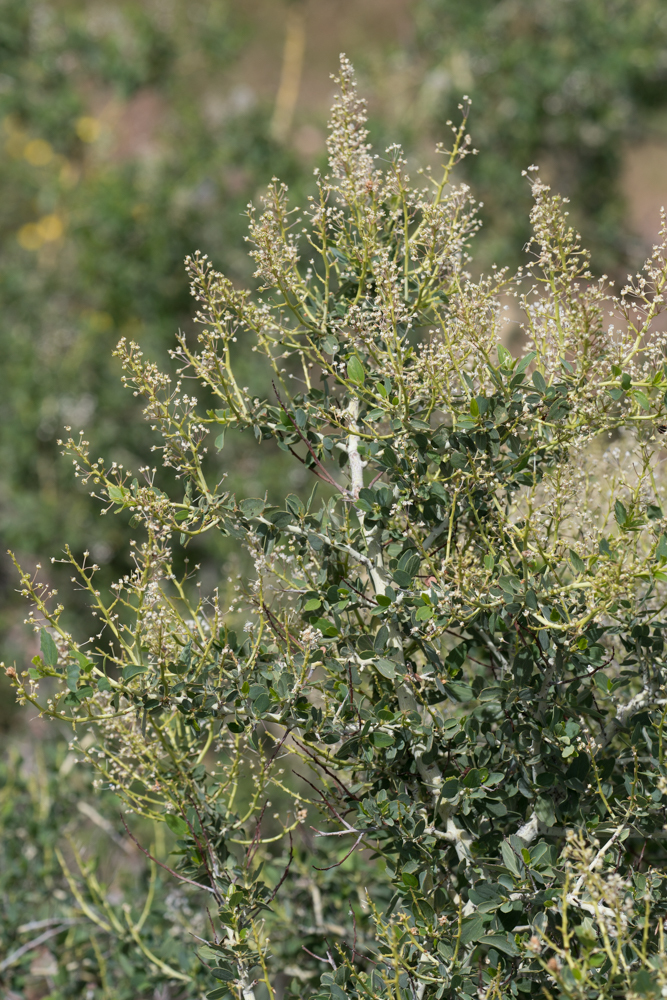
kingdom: Plantae
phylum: Tracheophyta
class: Magnoliopsida
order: Rosales
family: Rhamnaceae
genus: Ceanothus
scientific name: Ceanothus leucodermis
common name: Chaparral whitethorn
